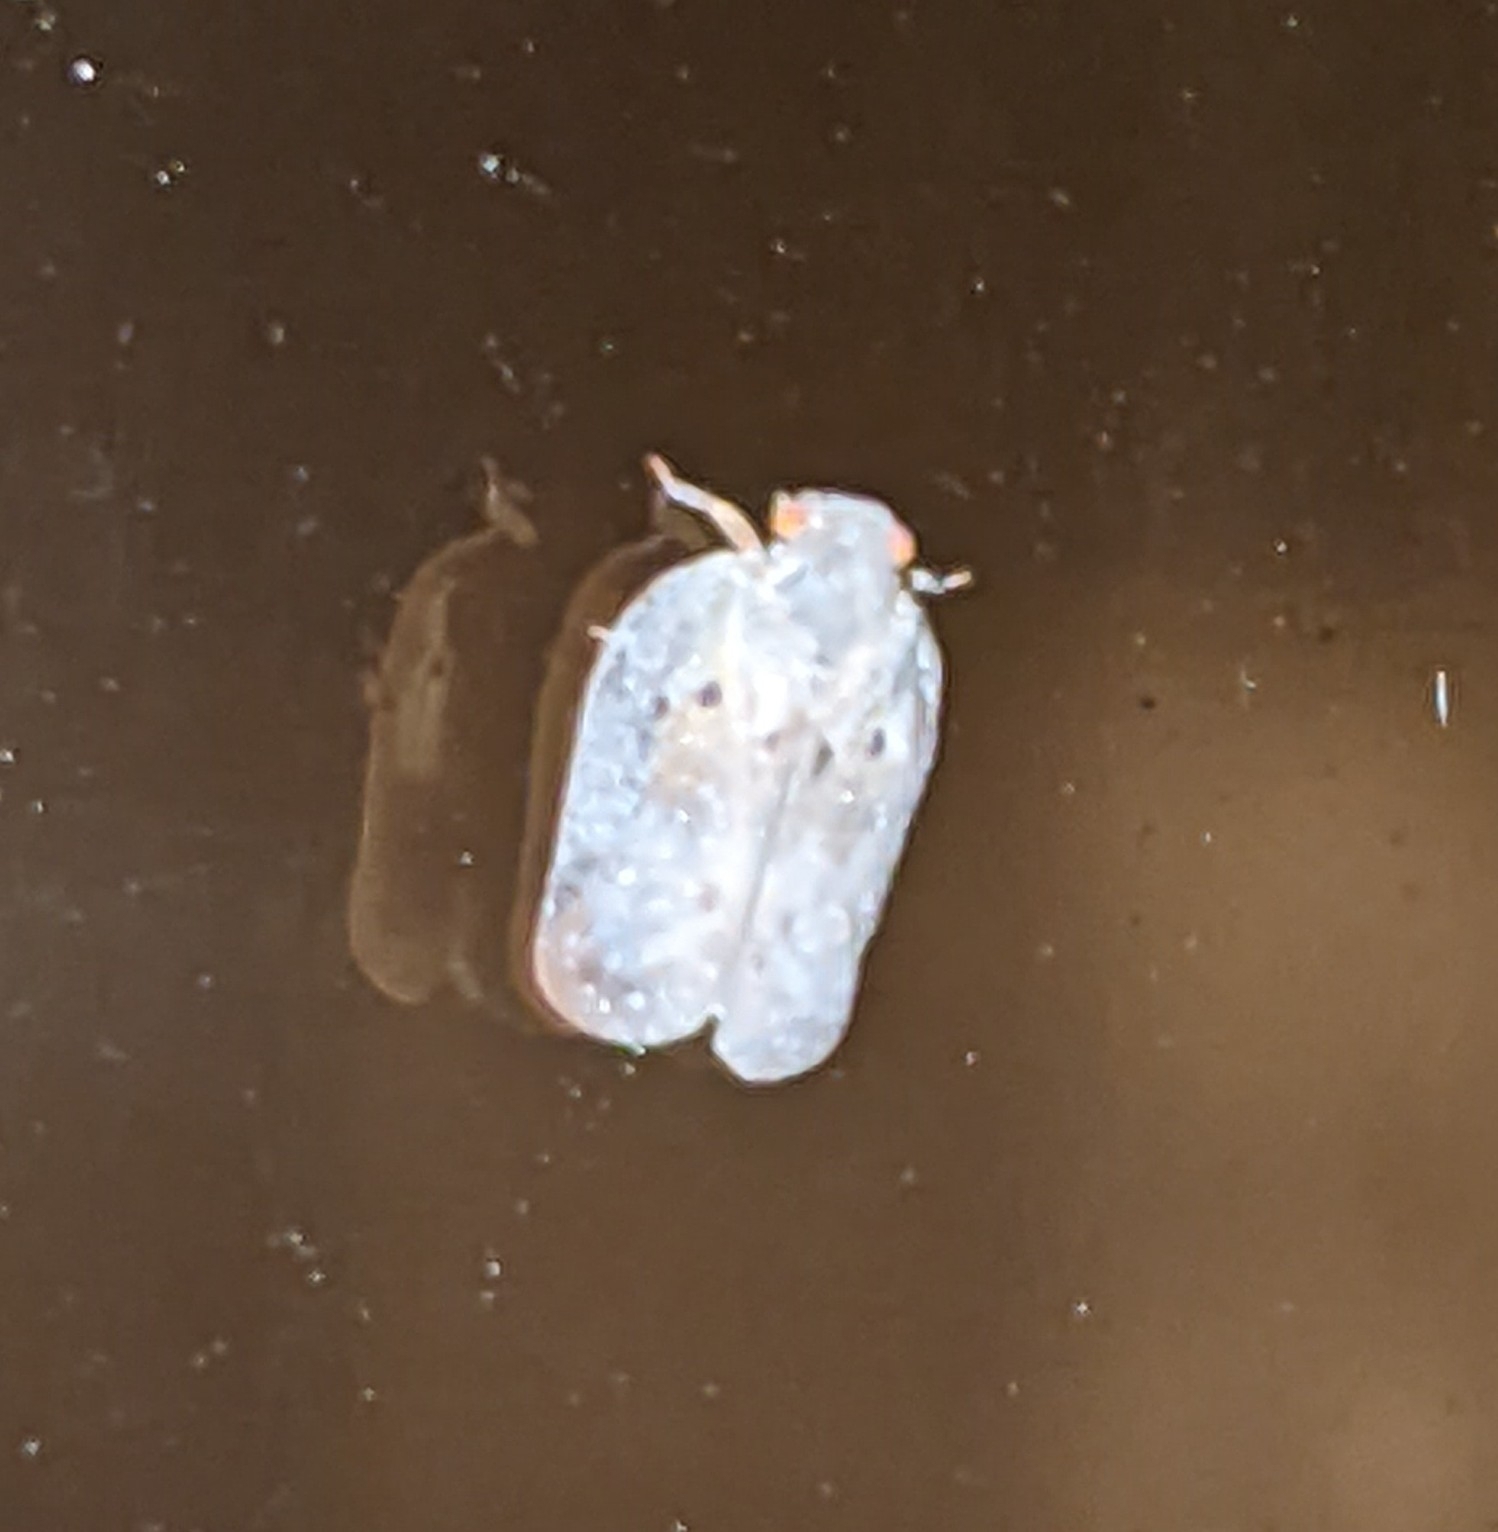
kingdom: Animalia
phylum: Arthropoda
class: Insecta
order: Hemiptera
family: Flatidae
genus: Melormenis
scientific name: Melormenis basalis
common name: Puerto rican planthopper
